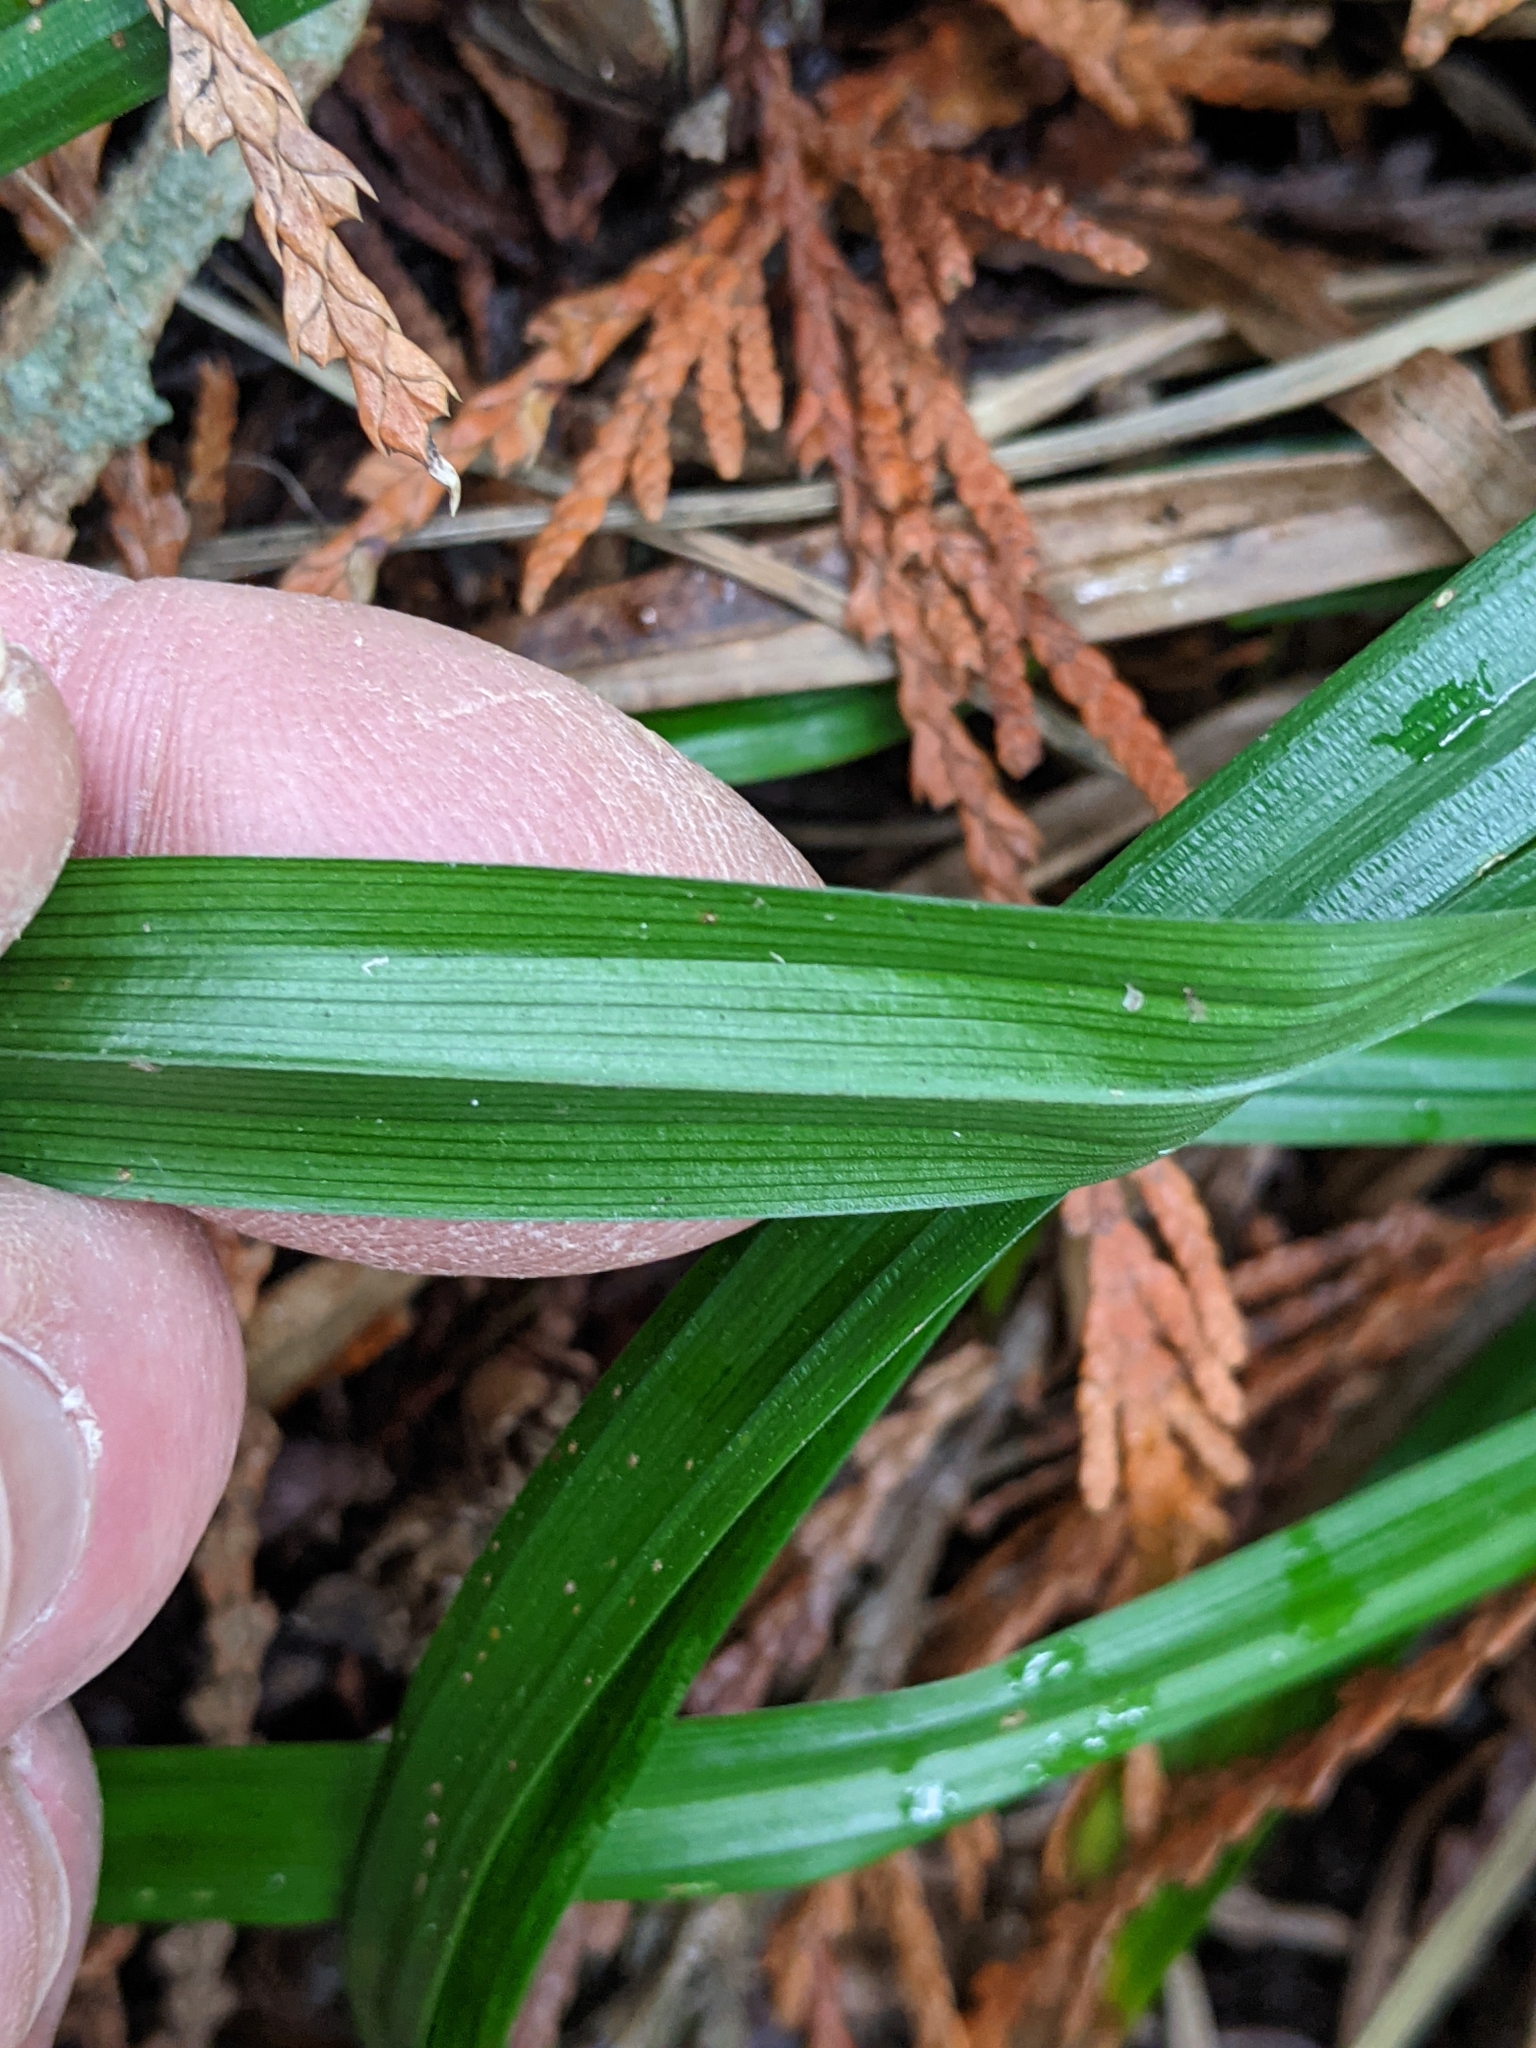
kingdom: Plantae
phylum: Tracheophyta
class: Liliopsida
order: Poales
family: Cyperaceae
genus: Carex
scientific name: Carex hendersonii
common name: Henderson's sedge
